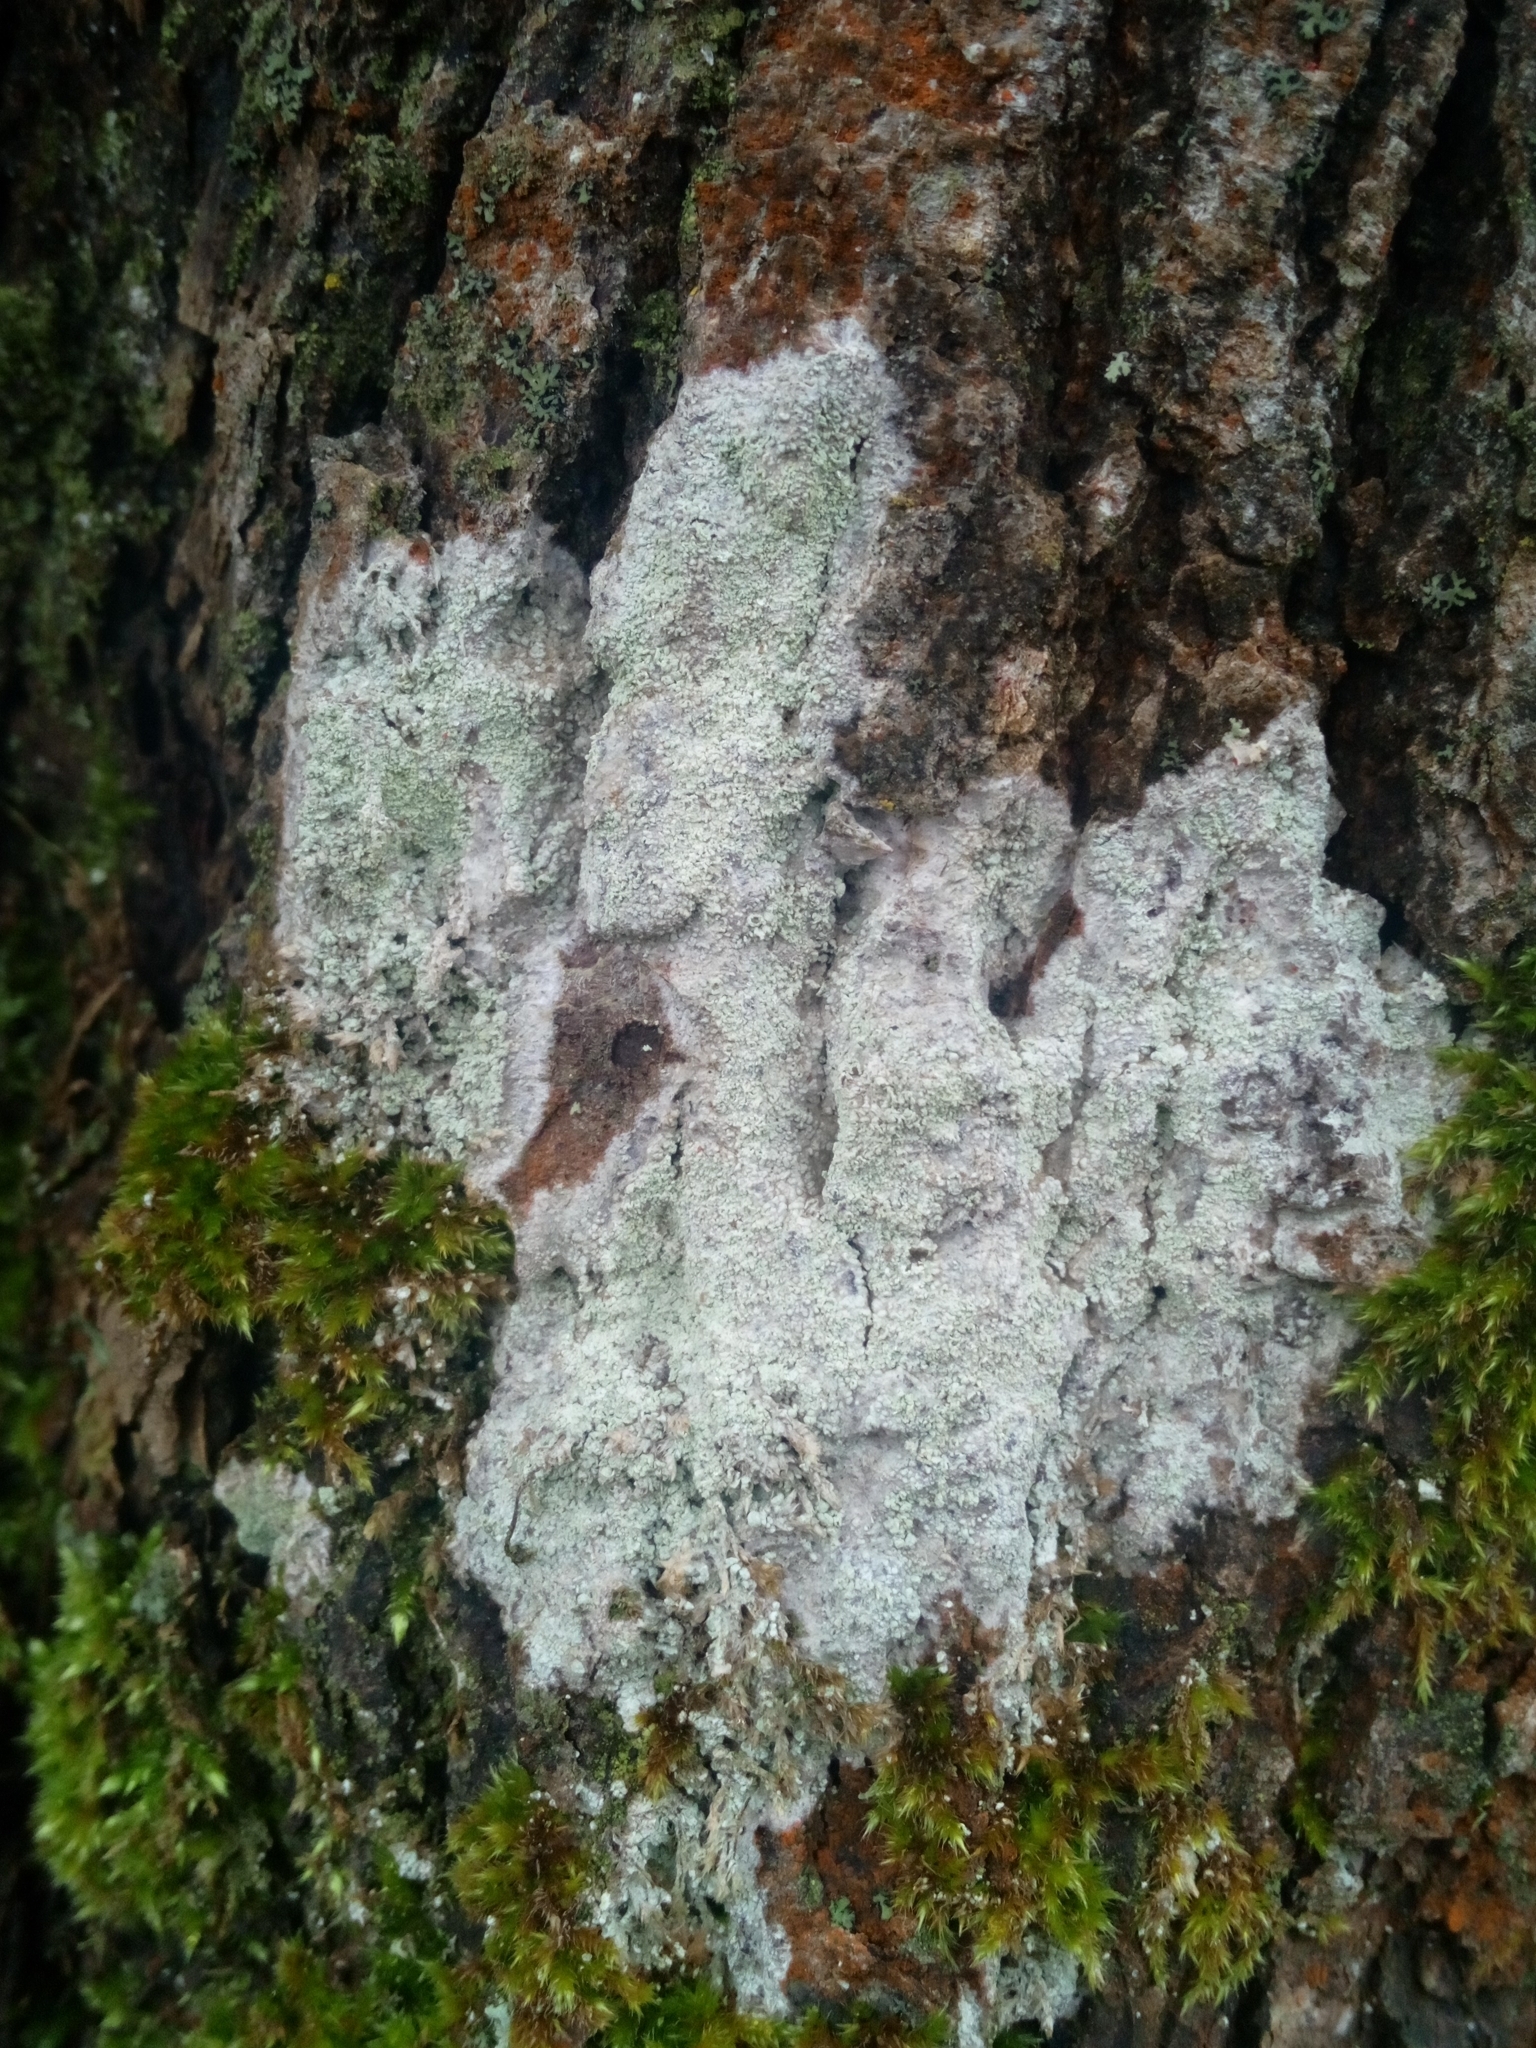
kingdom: Fungi
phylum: Ascomycota
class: Lecanoromycetes
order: Ostropales
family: Phlyctidaceae
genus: Phlyctis
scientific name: Phlyctis argena
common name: Whitewash lichen
